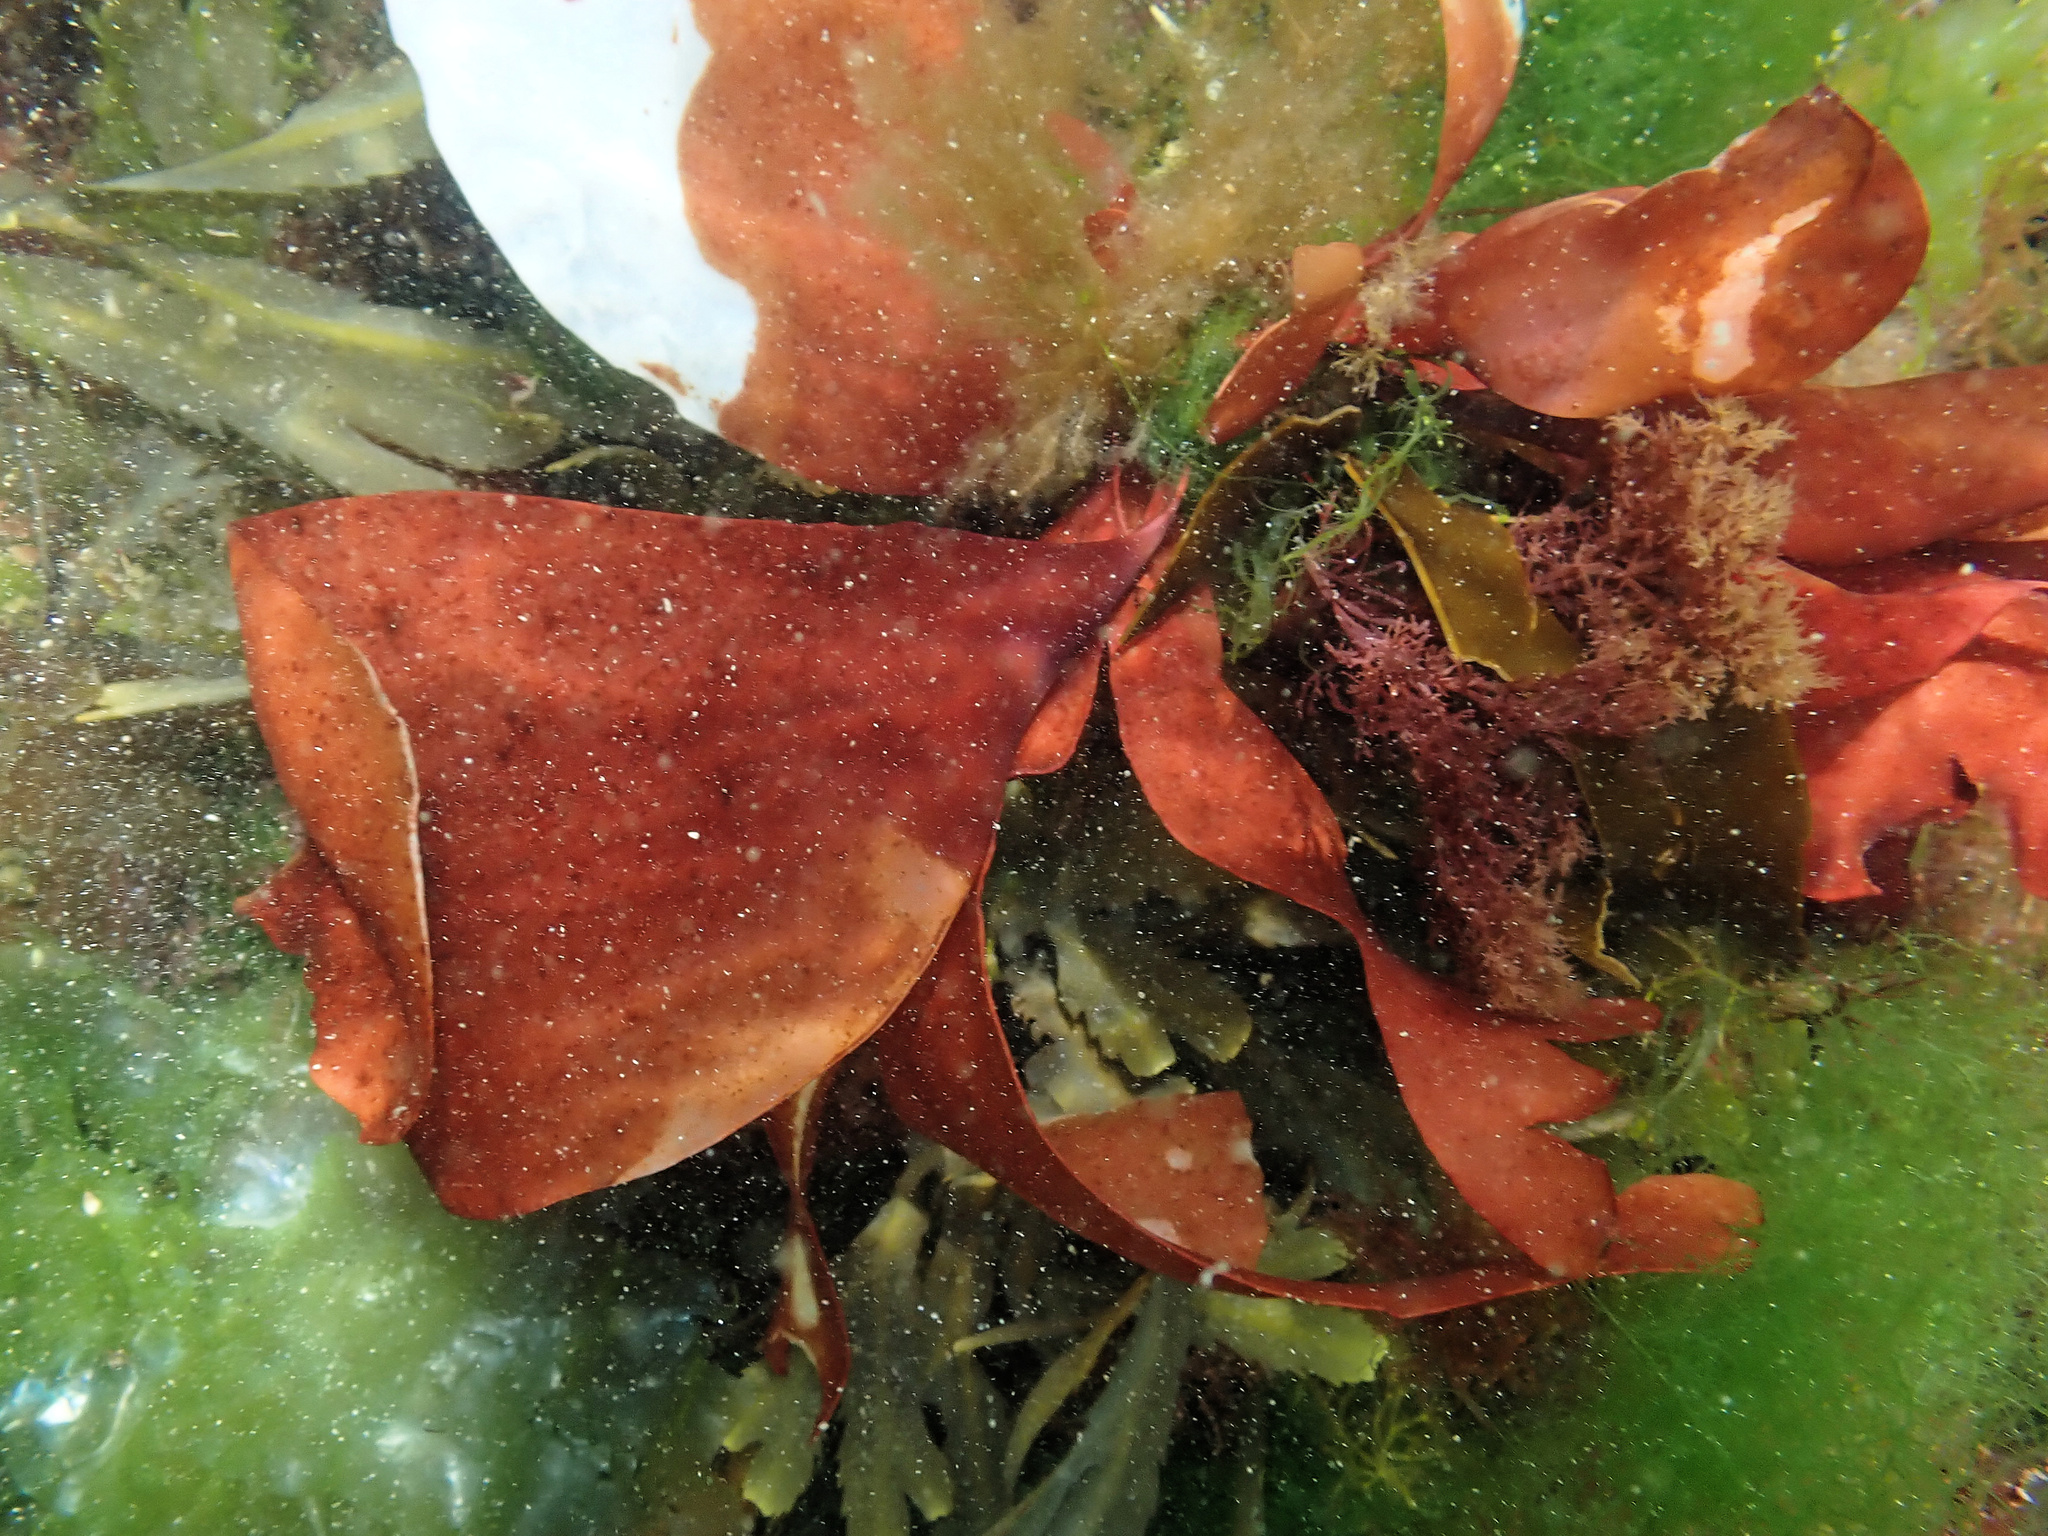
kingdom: Plantae
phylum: Rhodophyta
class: Florideophyceae
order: Gigartinales
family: Dumontiaceae
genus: Dilsea
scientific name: Dilsea carnosa
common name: Red rags
